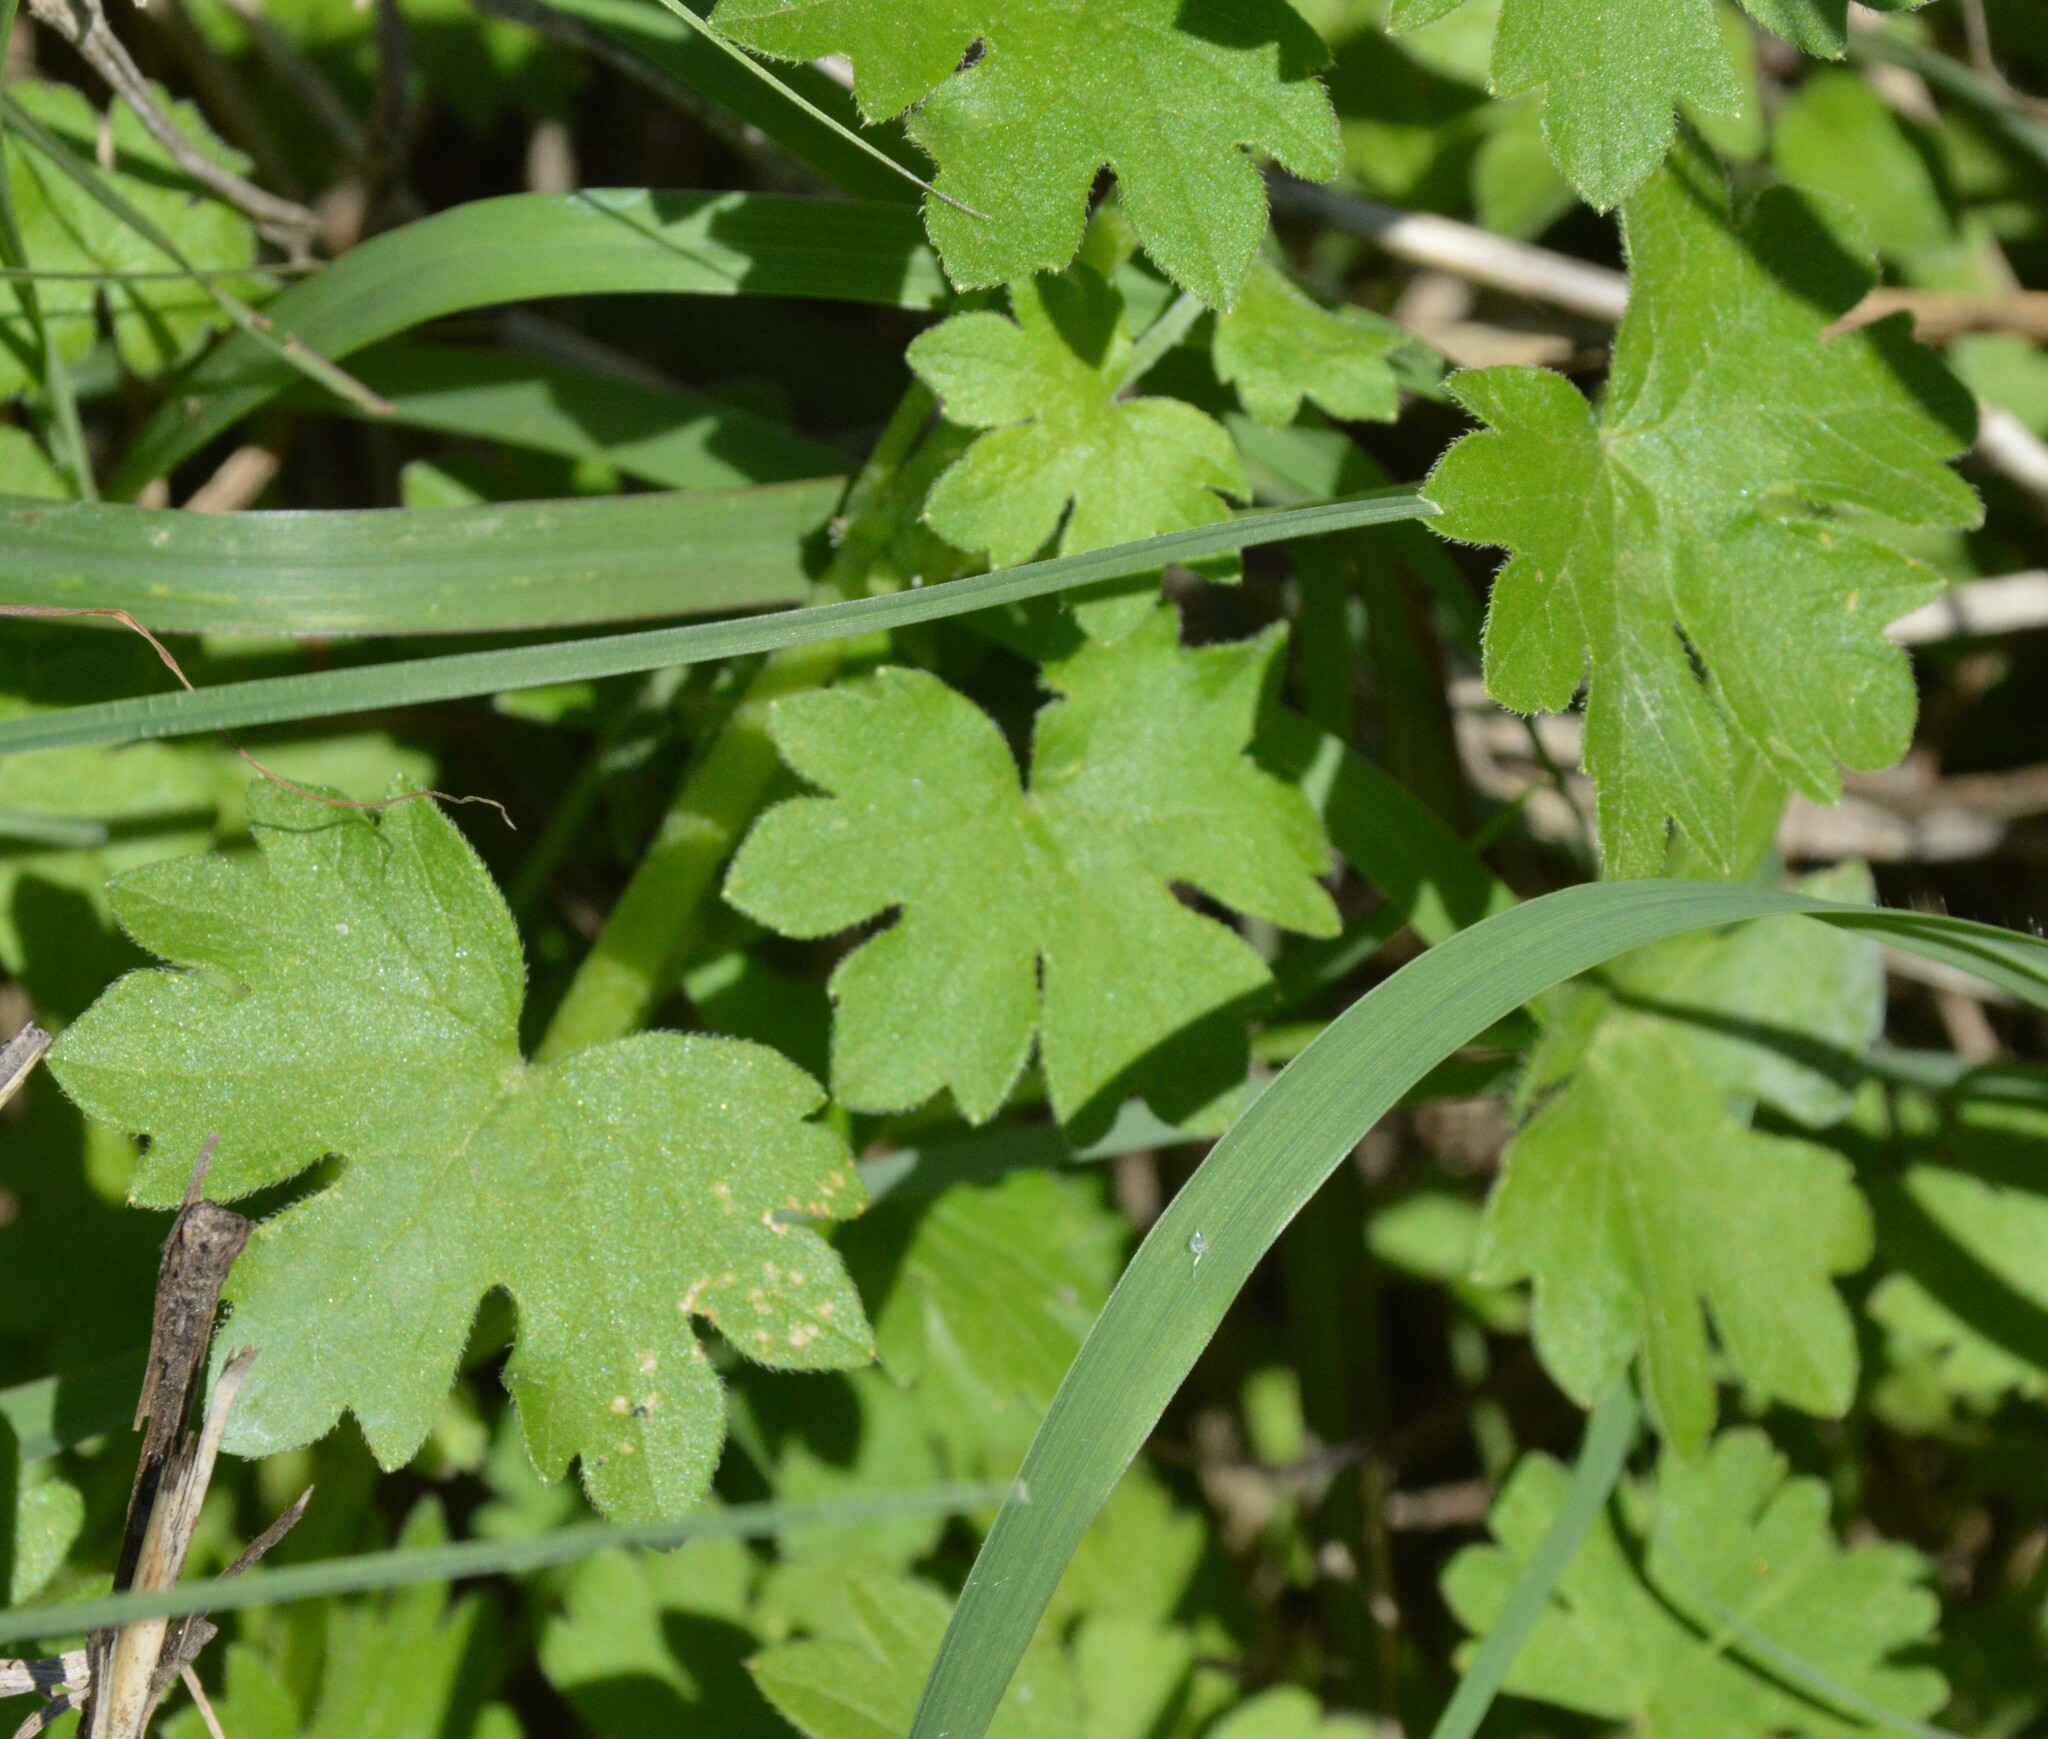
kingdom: Plantae
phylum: Tracheophyta
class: Magnoliopsida
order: Apiales
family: Apiaceae
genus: Bowlesia
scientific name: Bowlesia incana
